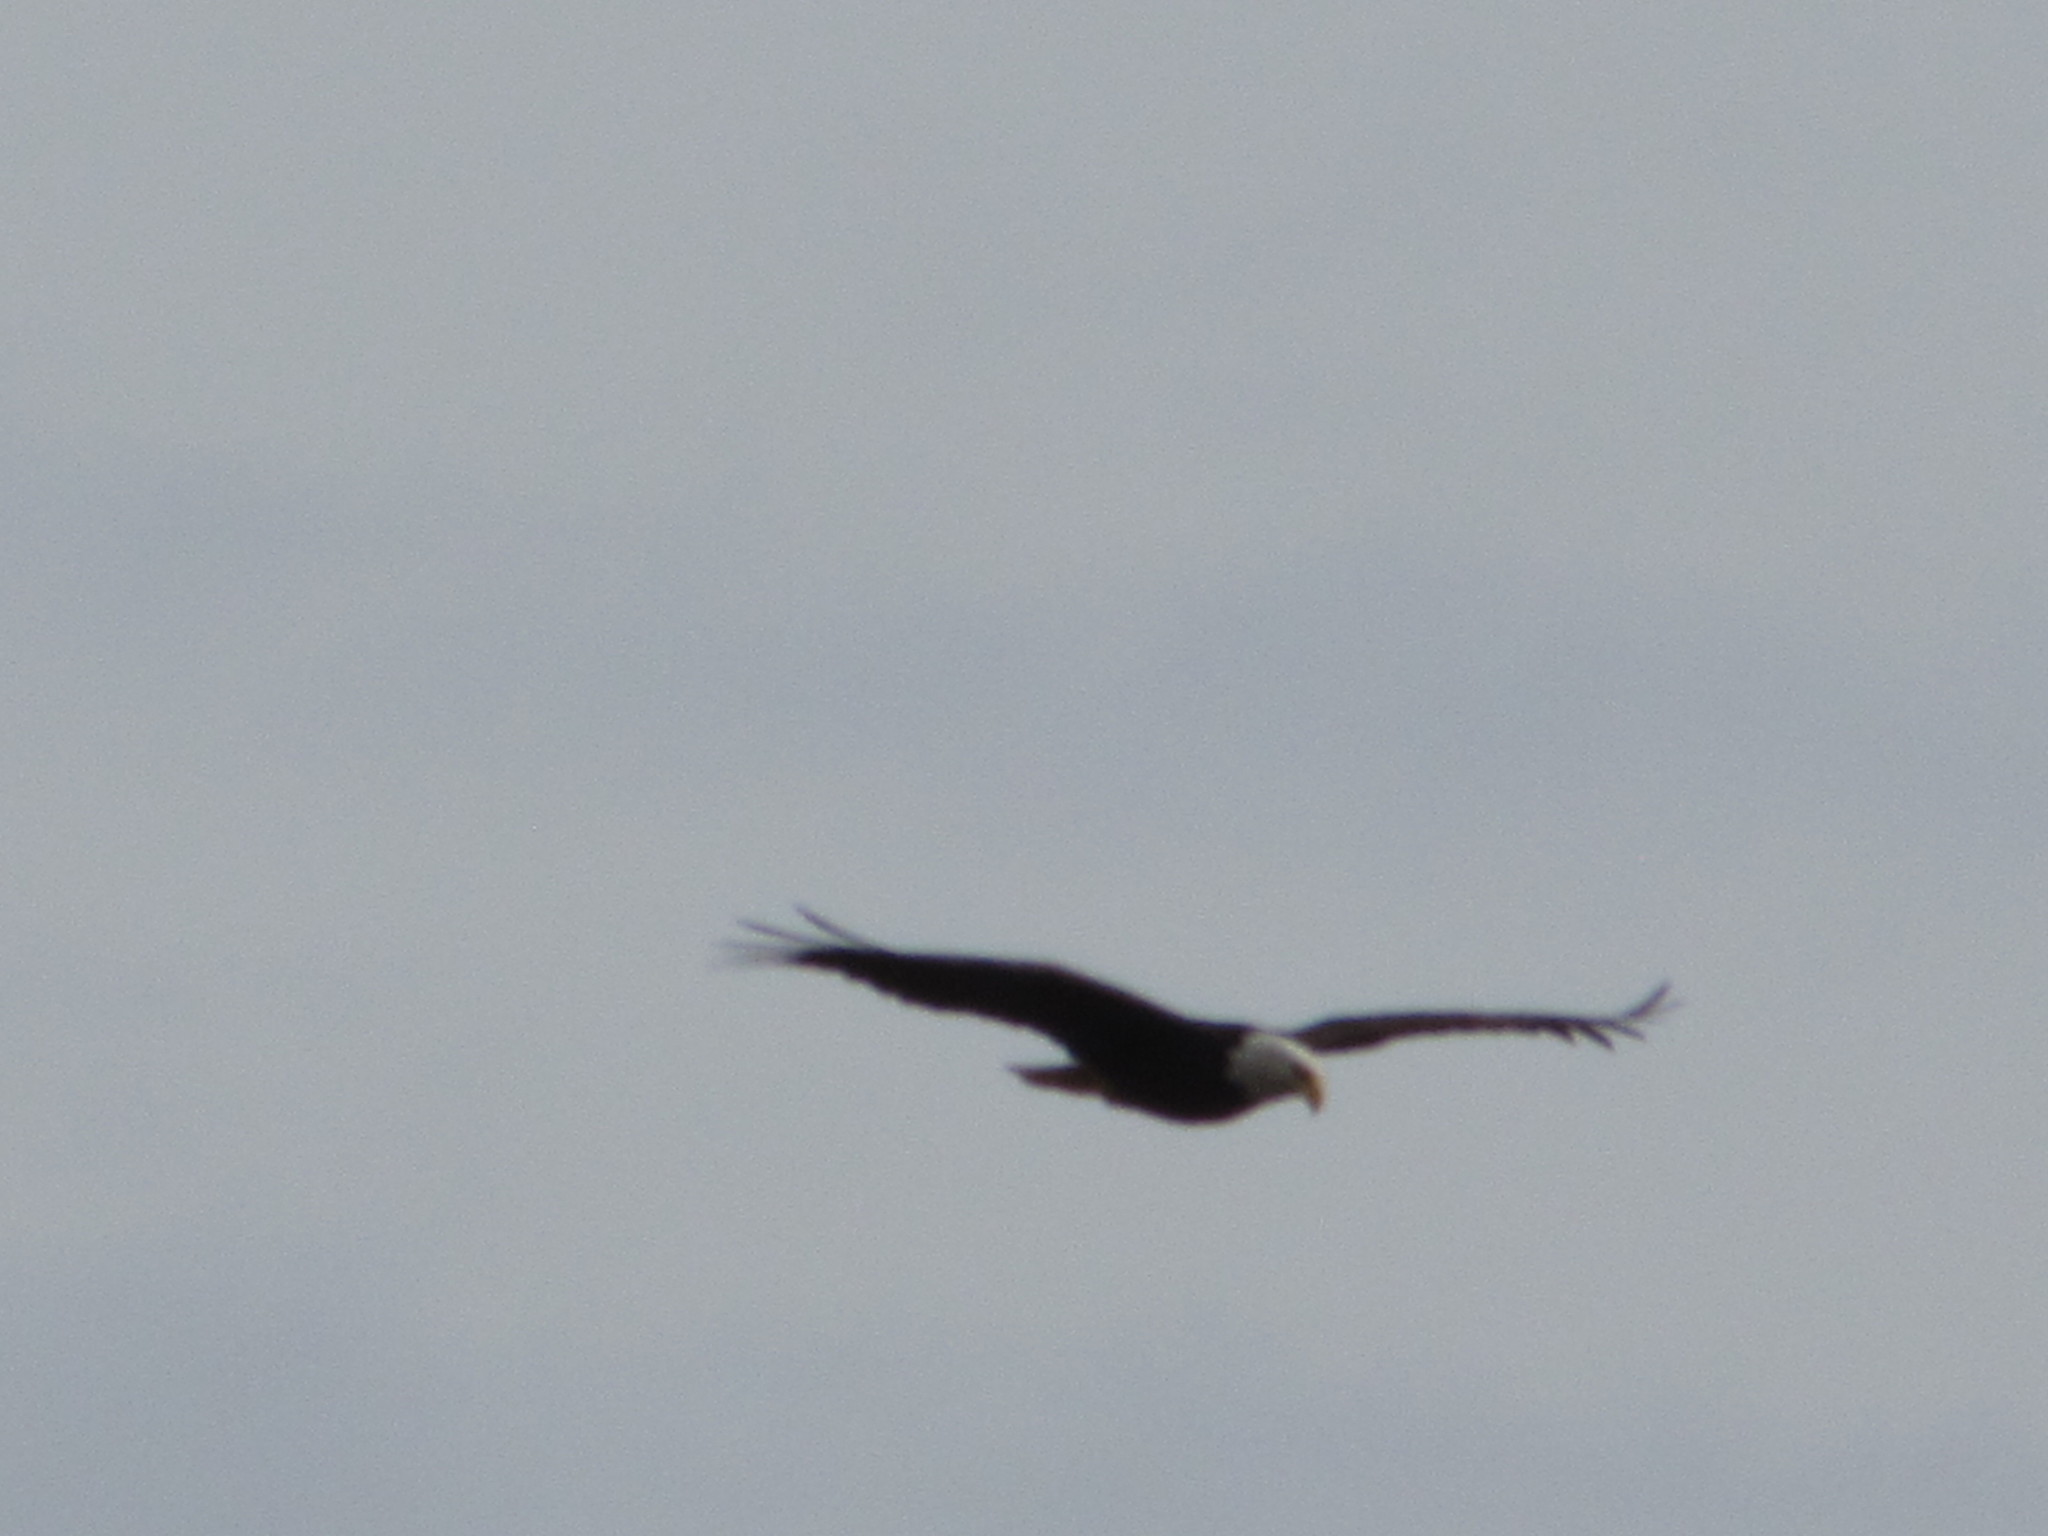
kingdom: Animalia
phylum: Chordata
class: Aves
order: Accipitriformes
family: Accipitridae
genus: Haliaeetus
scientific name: Haliaeetus leucocephalus
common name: Bald eagle
